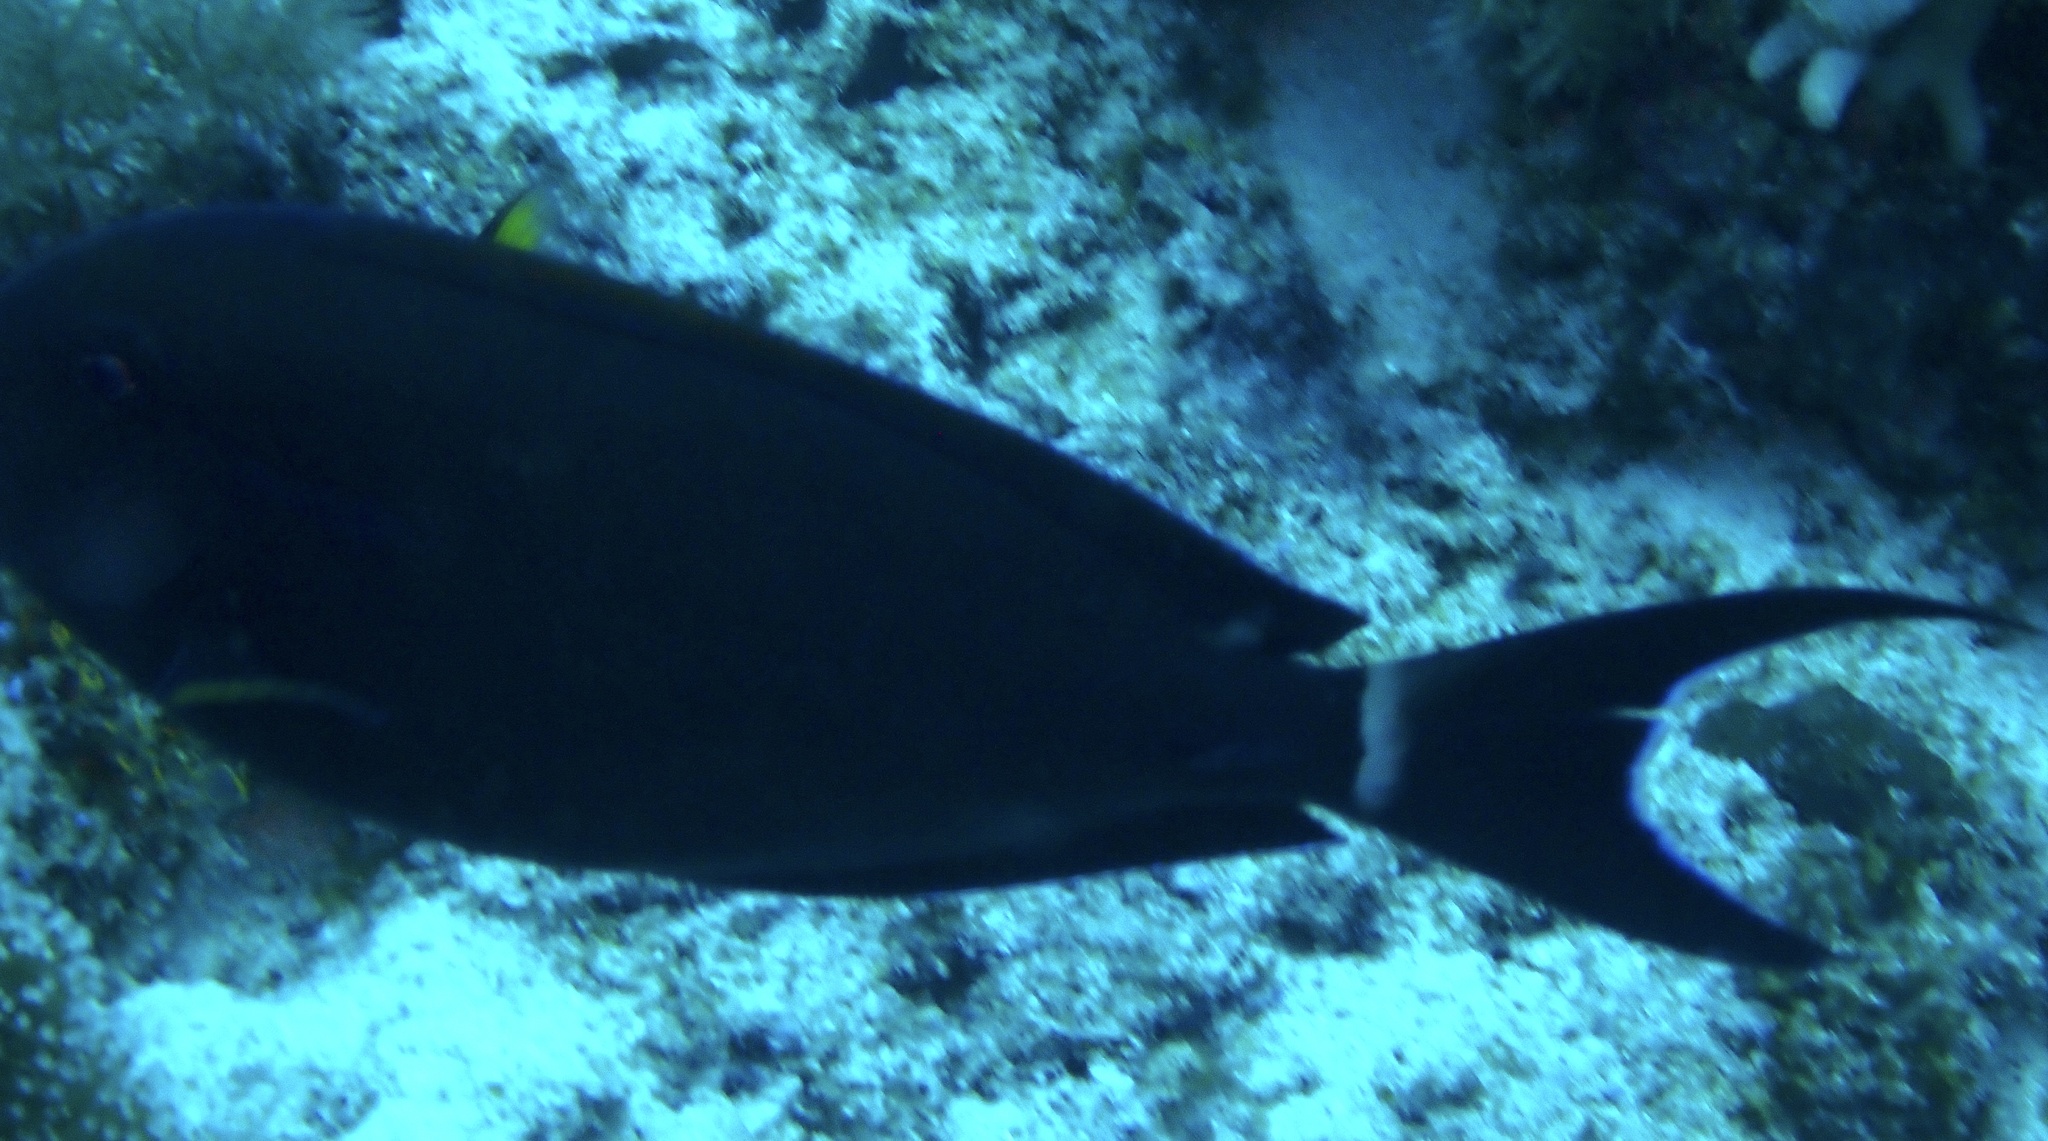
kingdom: Animalia
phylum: Chordata
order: Perciformes
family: Acanthuridae
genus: Acanthurus
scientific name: Acanthurus nigricauda
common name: Black-barred surgeonfish
